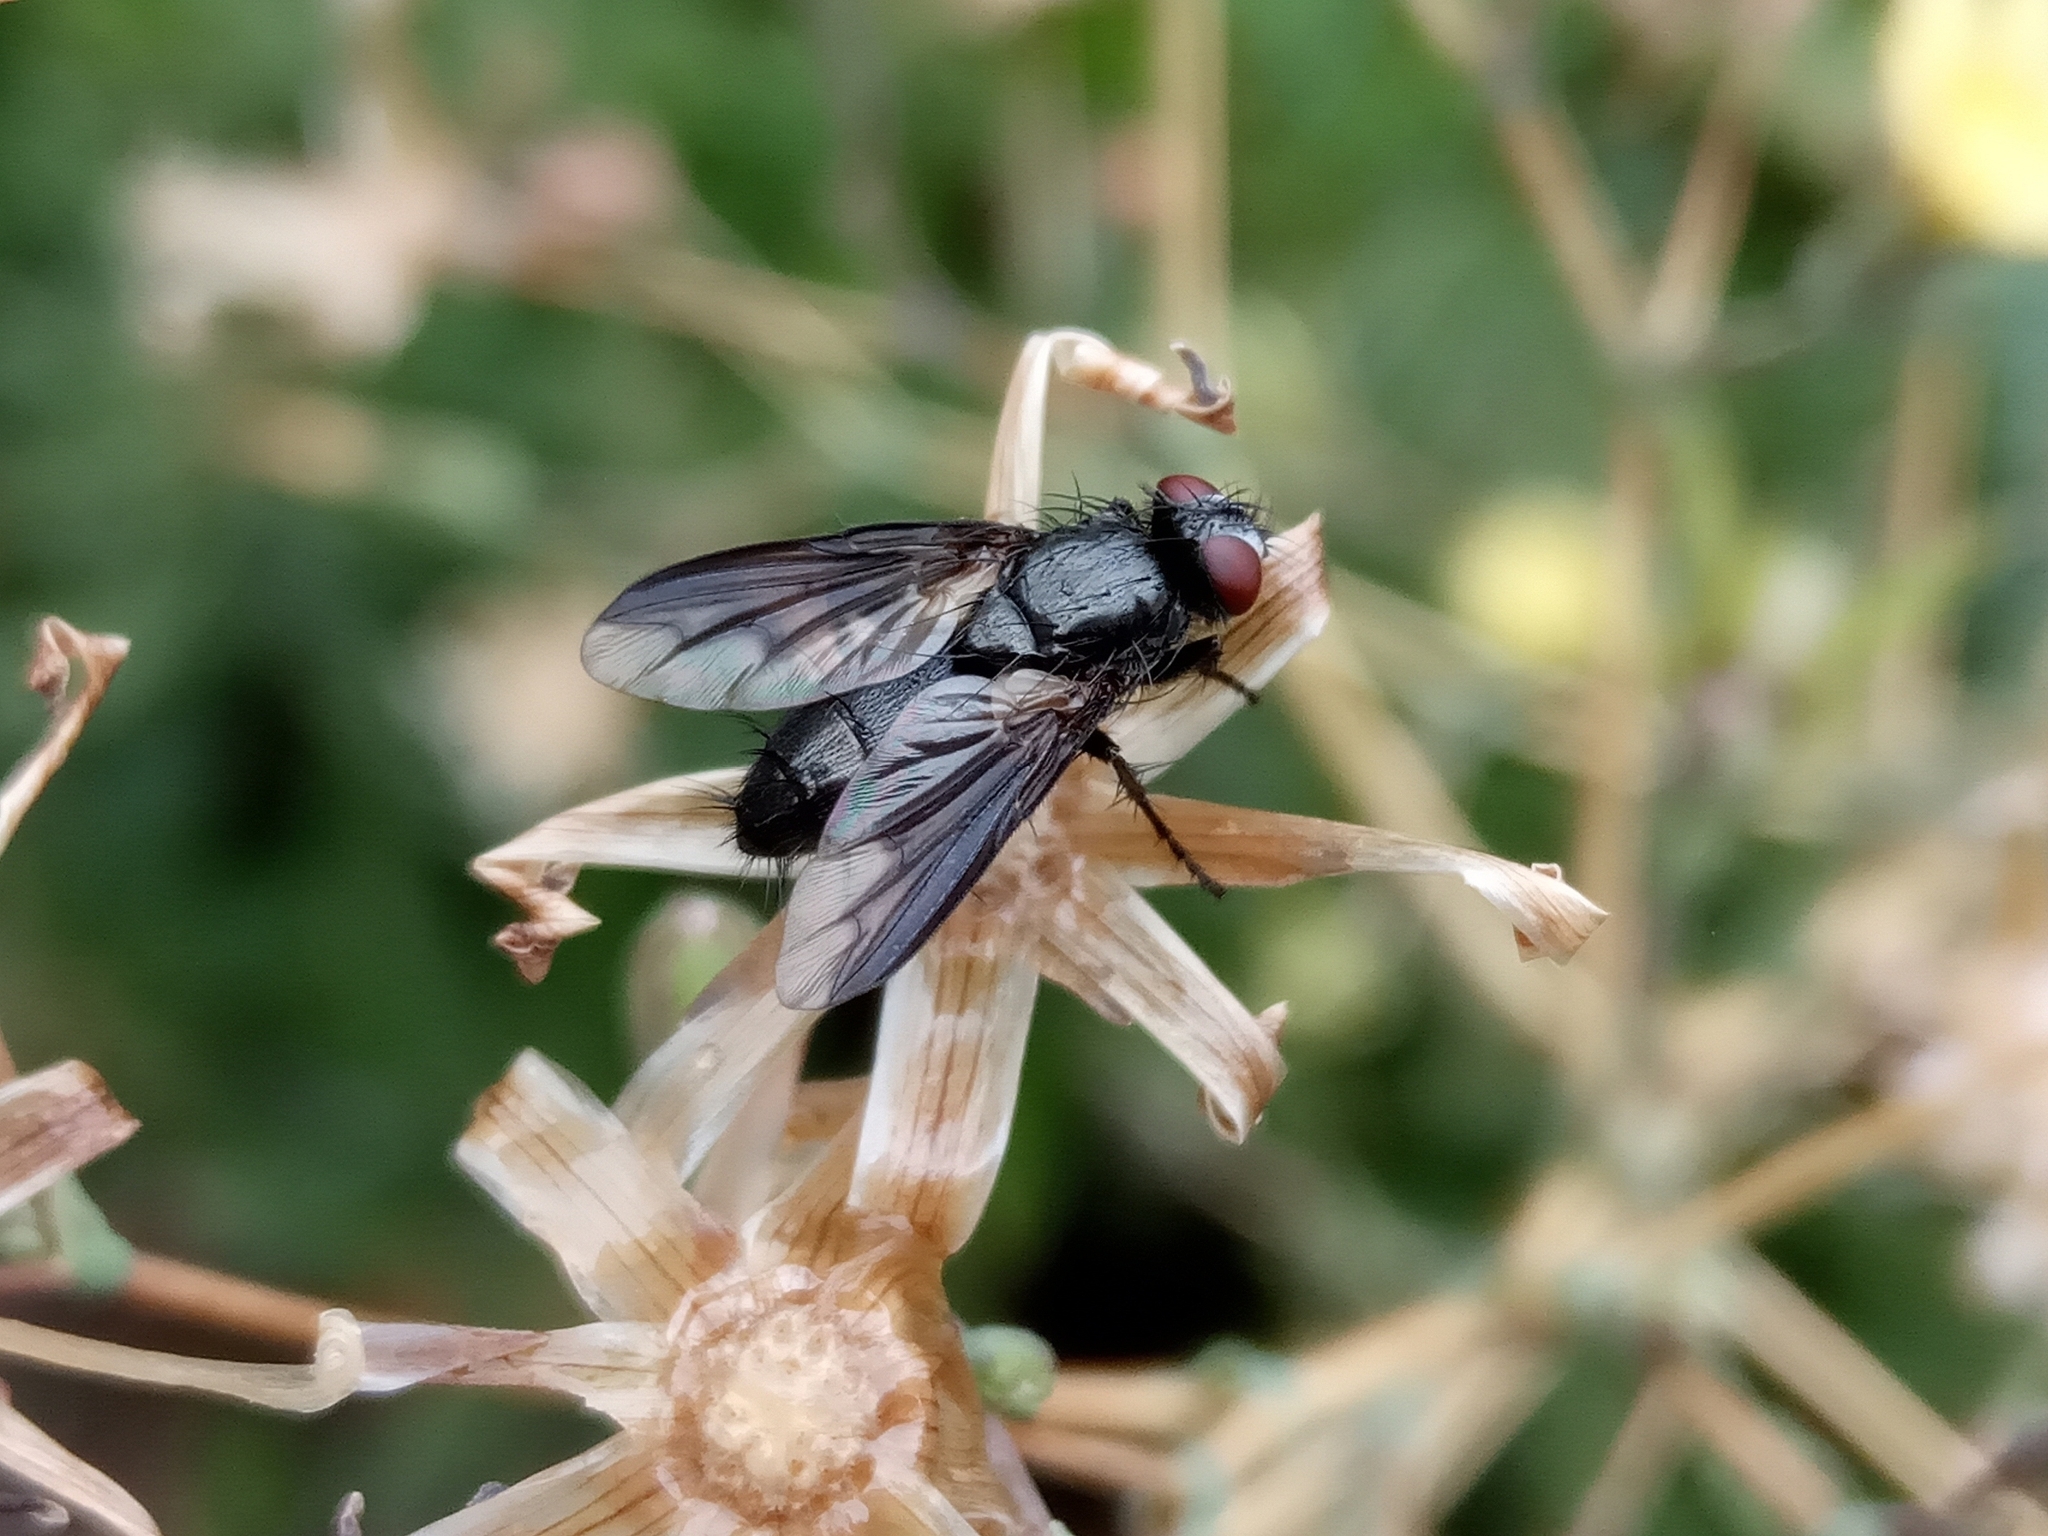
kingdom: Animalia
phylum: Arthropoda
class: Insecta
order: Diptera
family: Sarcophagidae
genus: Nyctia
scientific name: Nyctia
